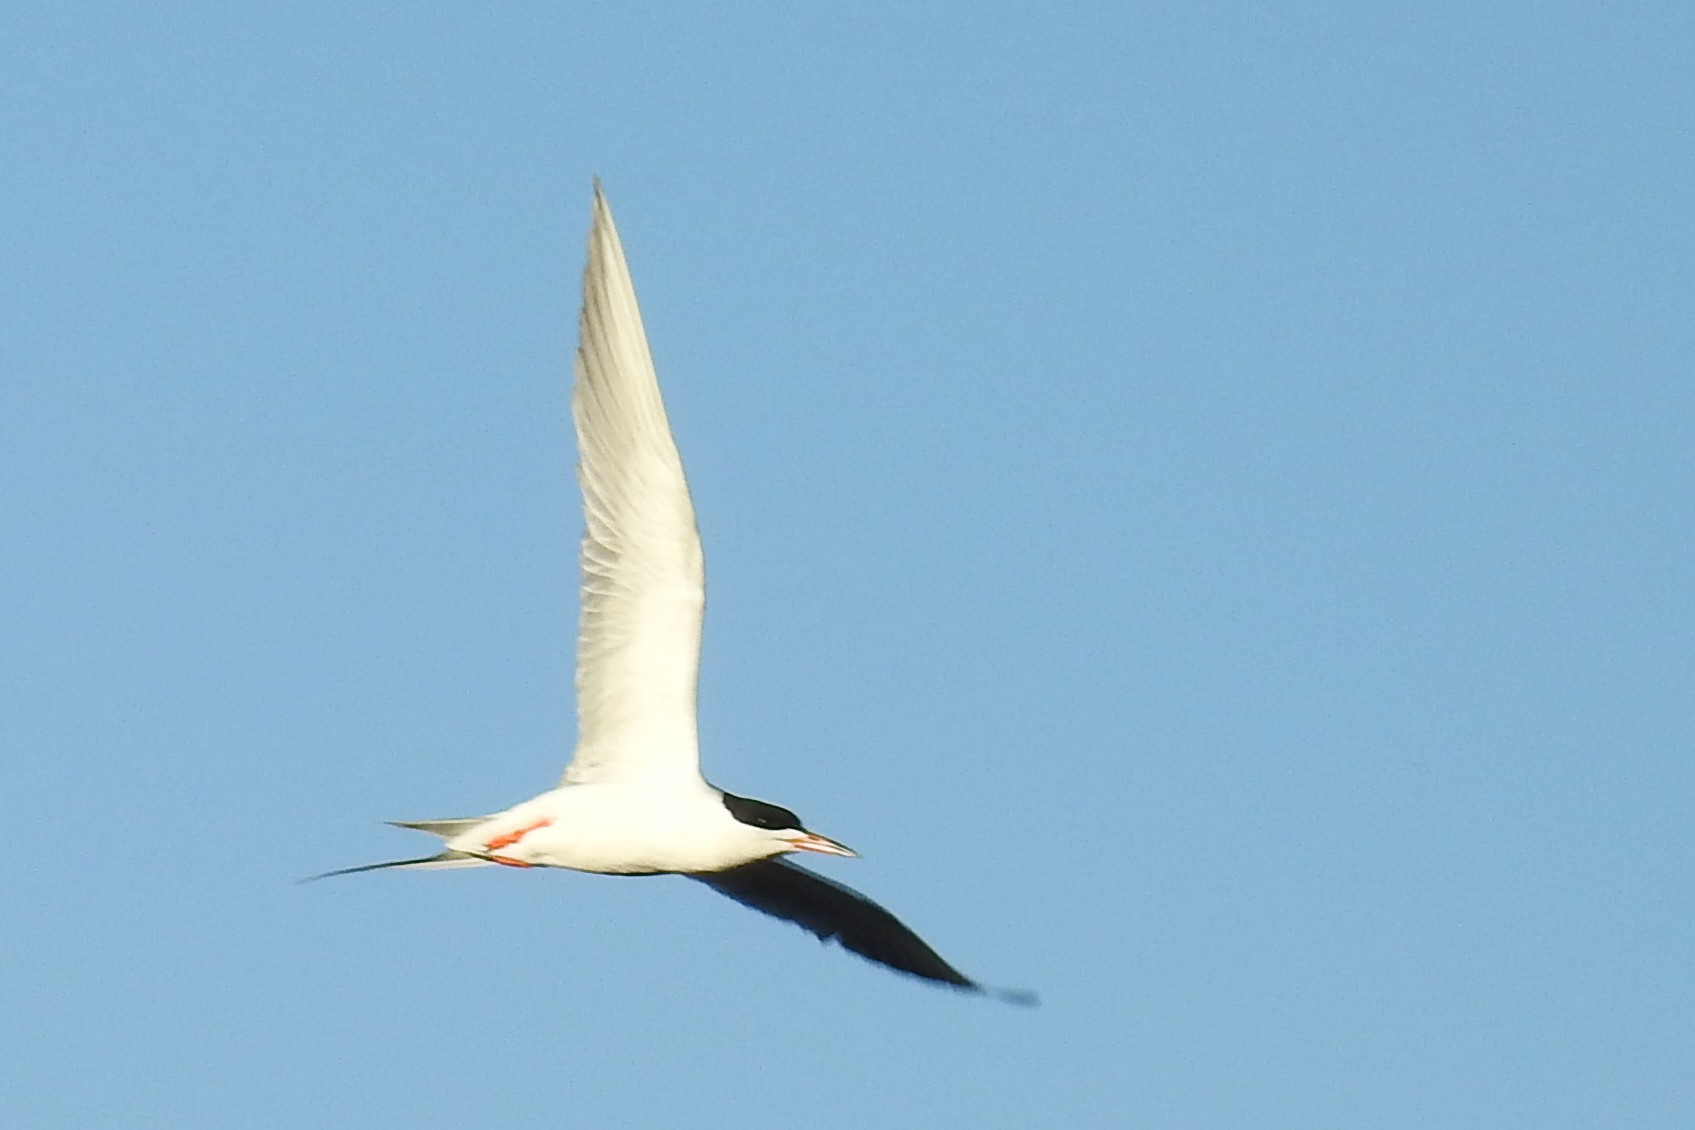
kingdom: Animalia
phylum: Chordata
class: Aves
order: Charadriiformes
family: Laridae
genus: Sterna
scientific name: Sterna forsteri
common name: Forster's tern
